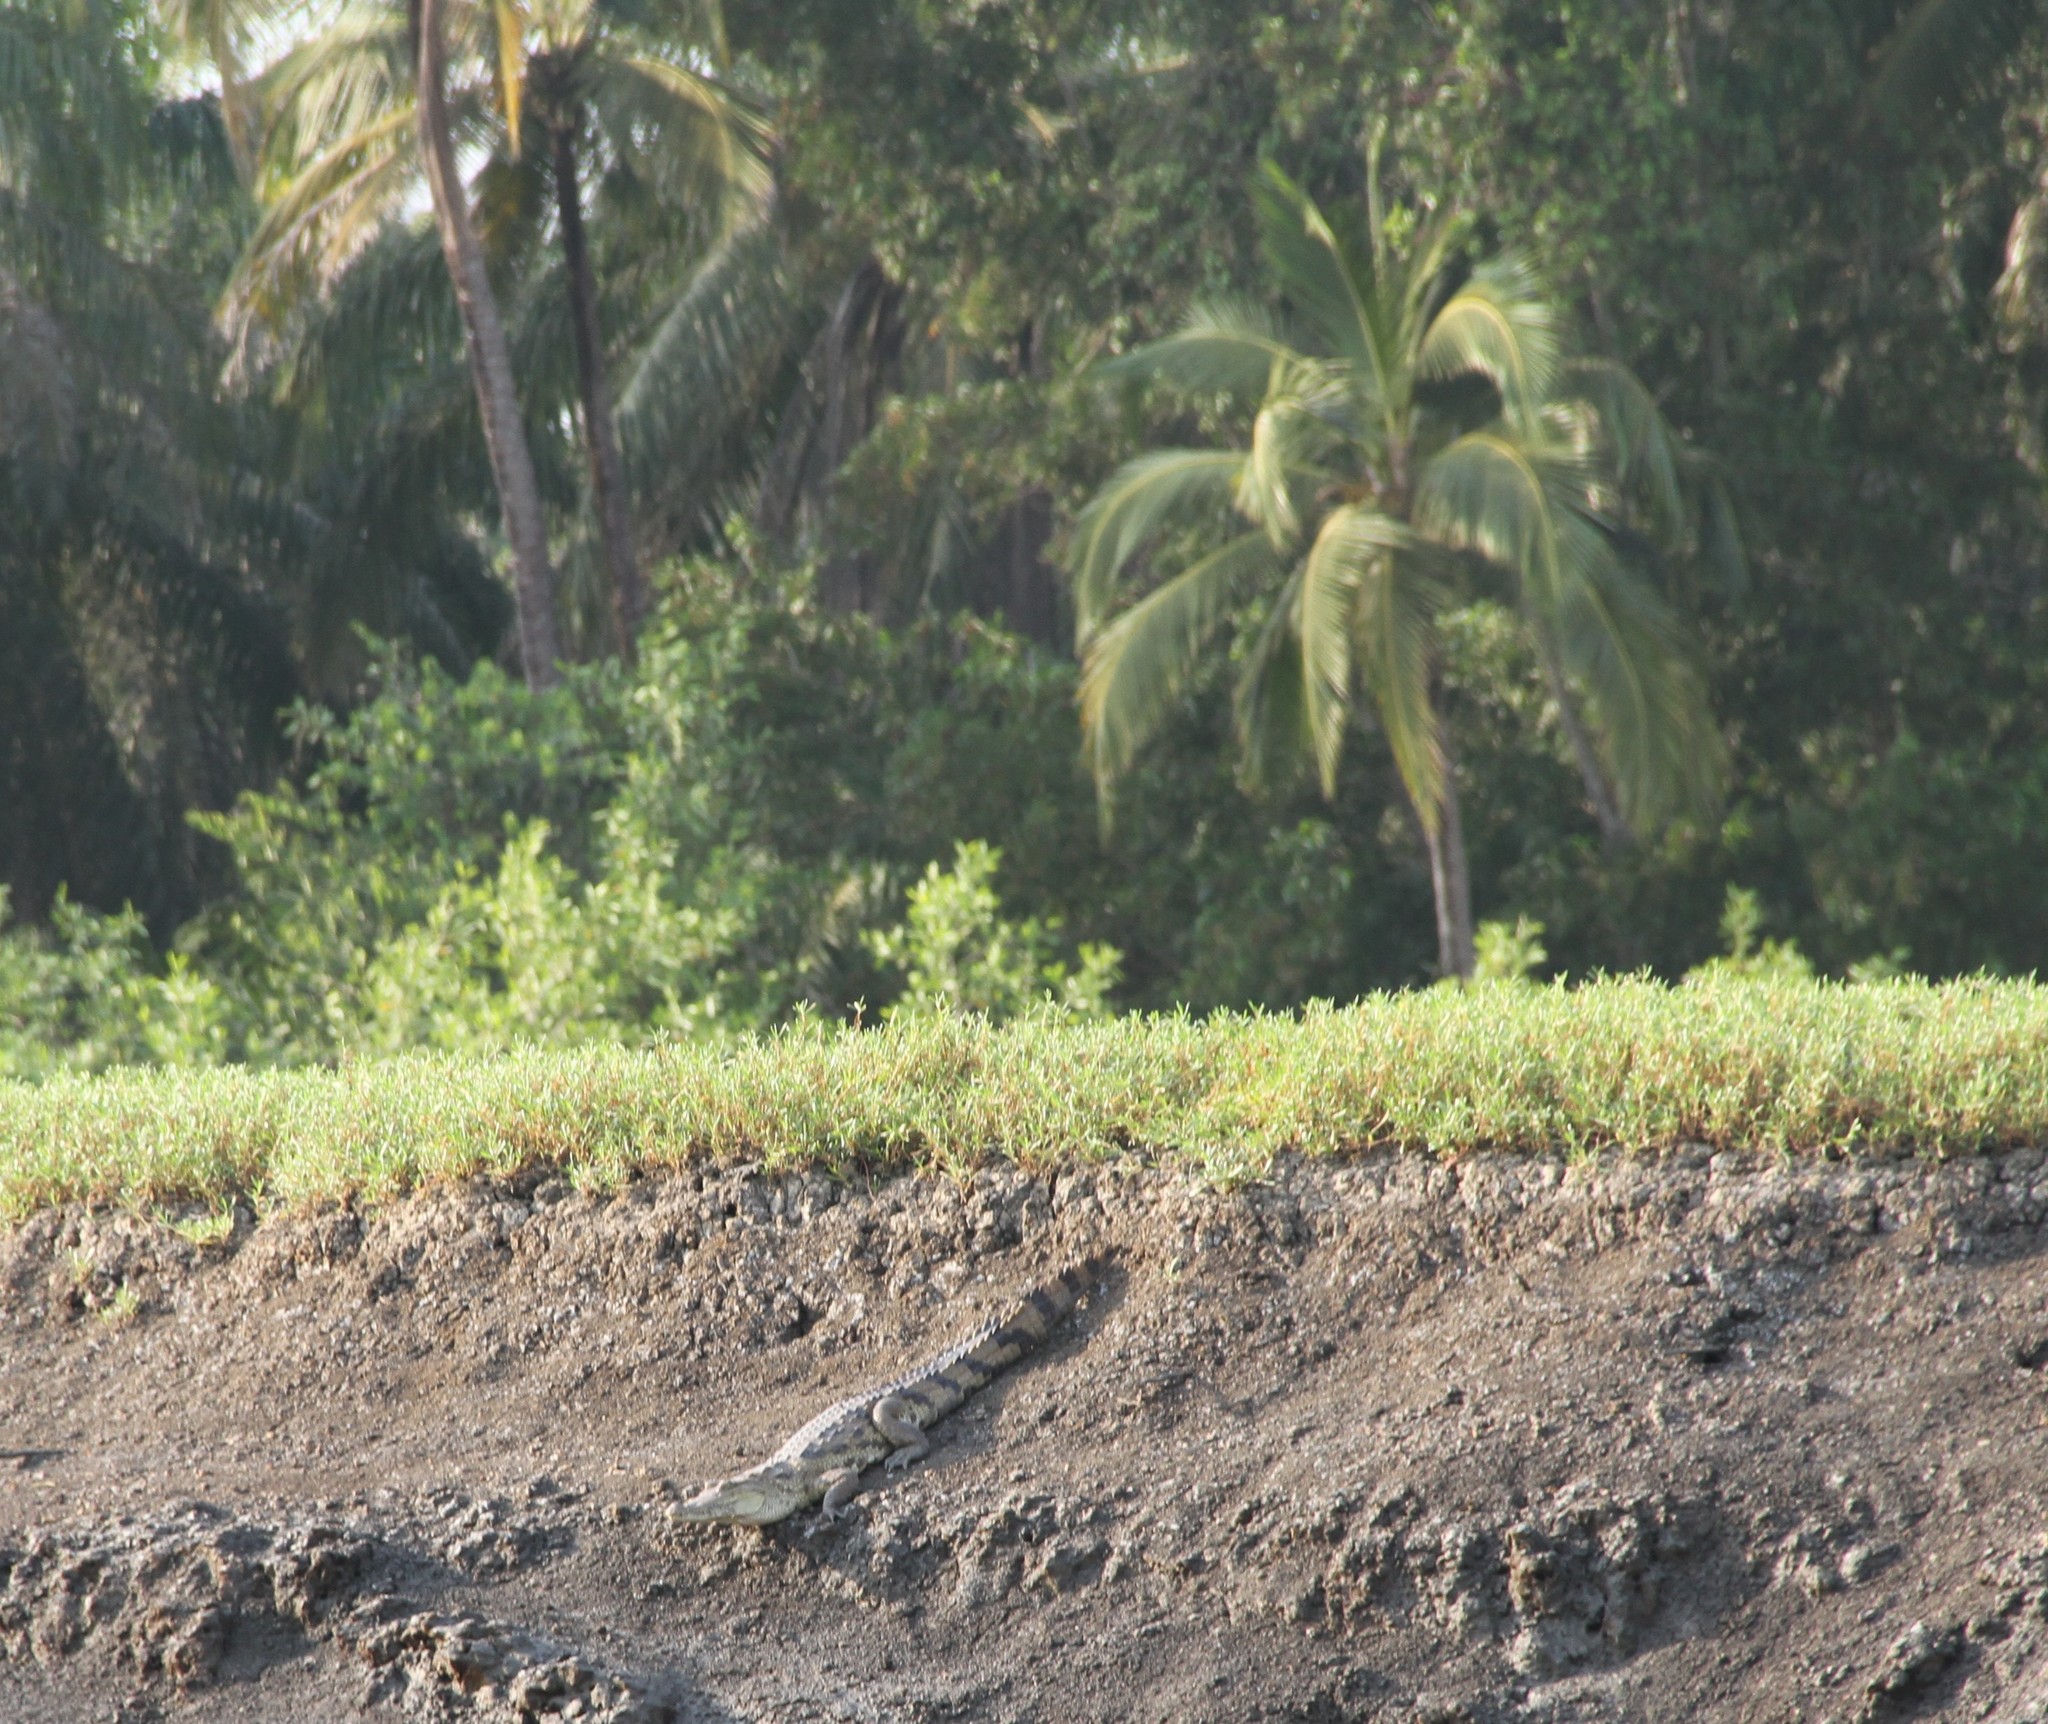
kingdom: Animalia
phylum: Chordata
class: Crocodylia
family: Crocodylidae
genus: Crocodylus
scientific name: Crocodylus suchus
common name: West african crocodile
